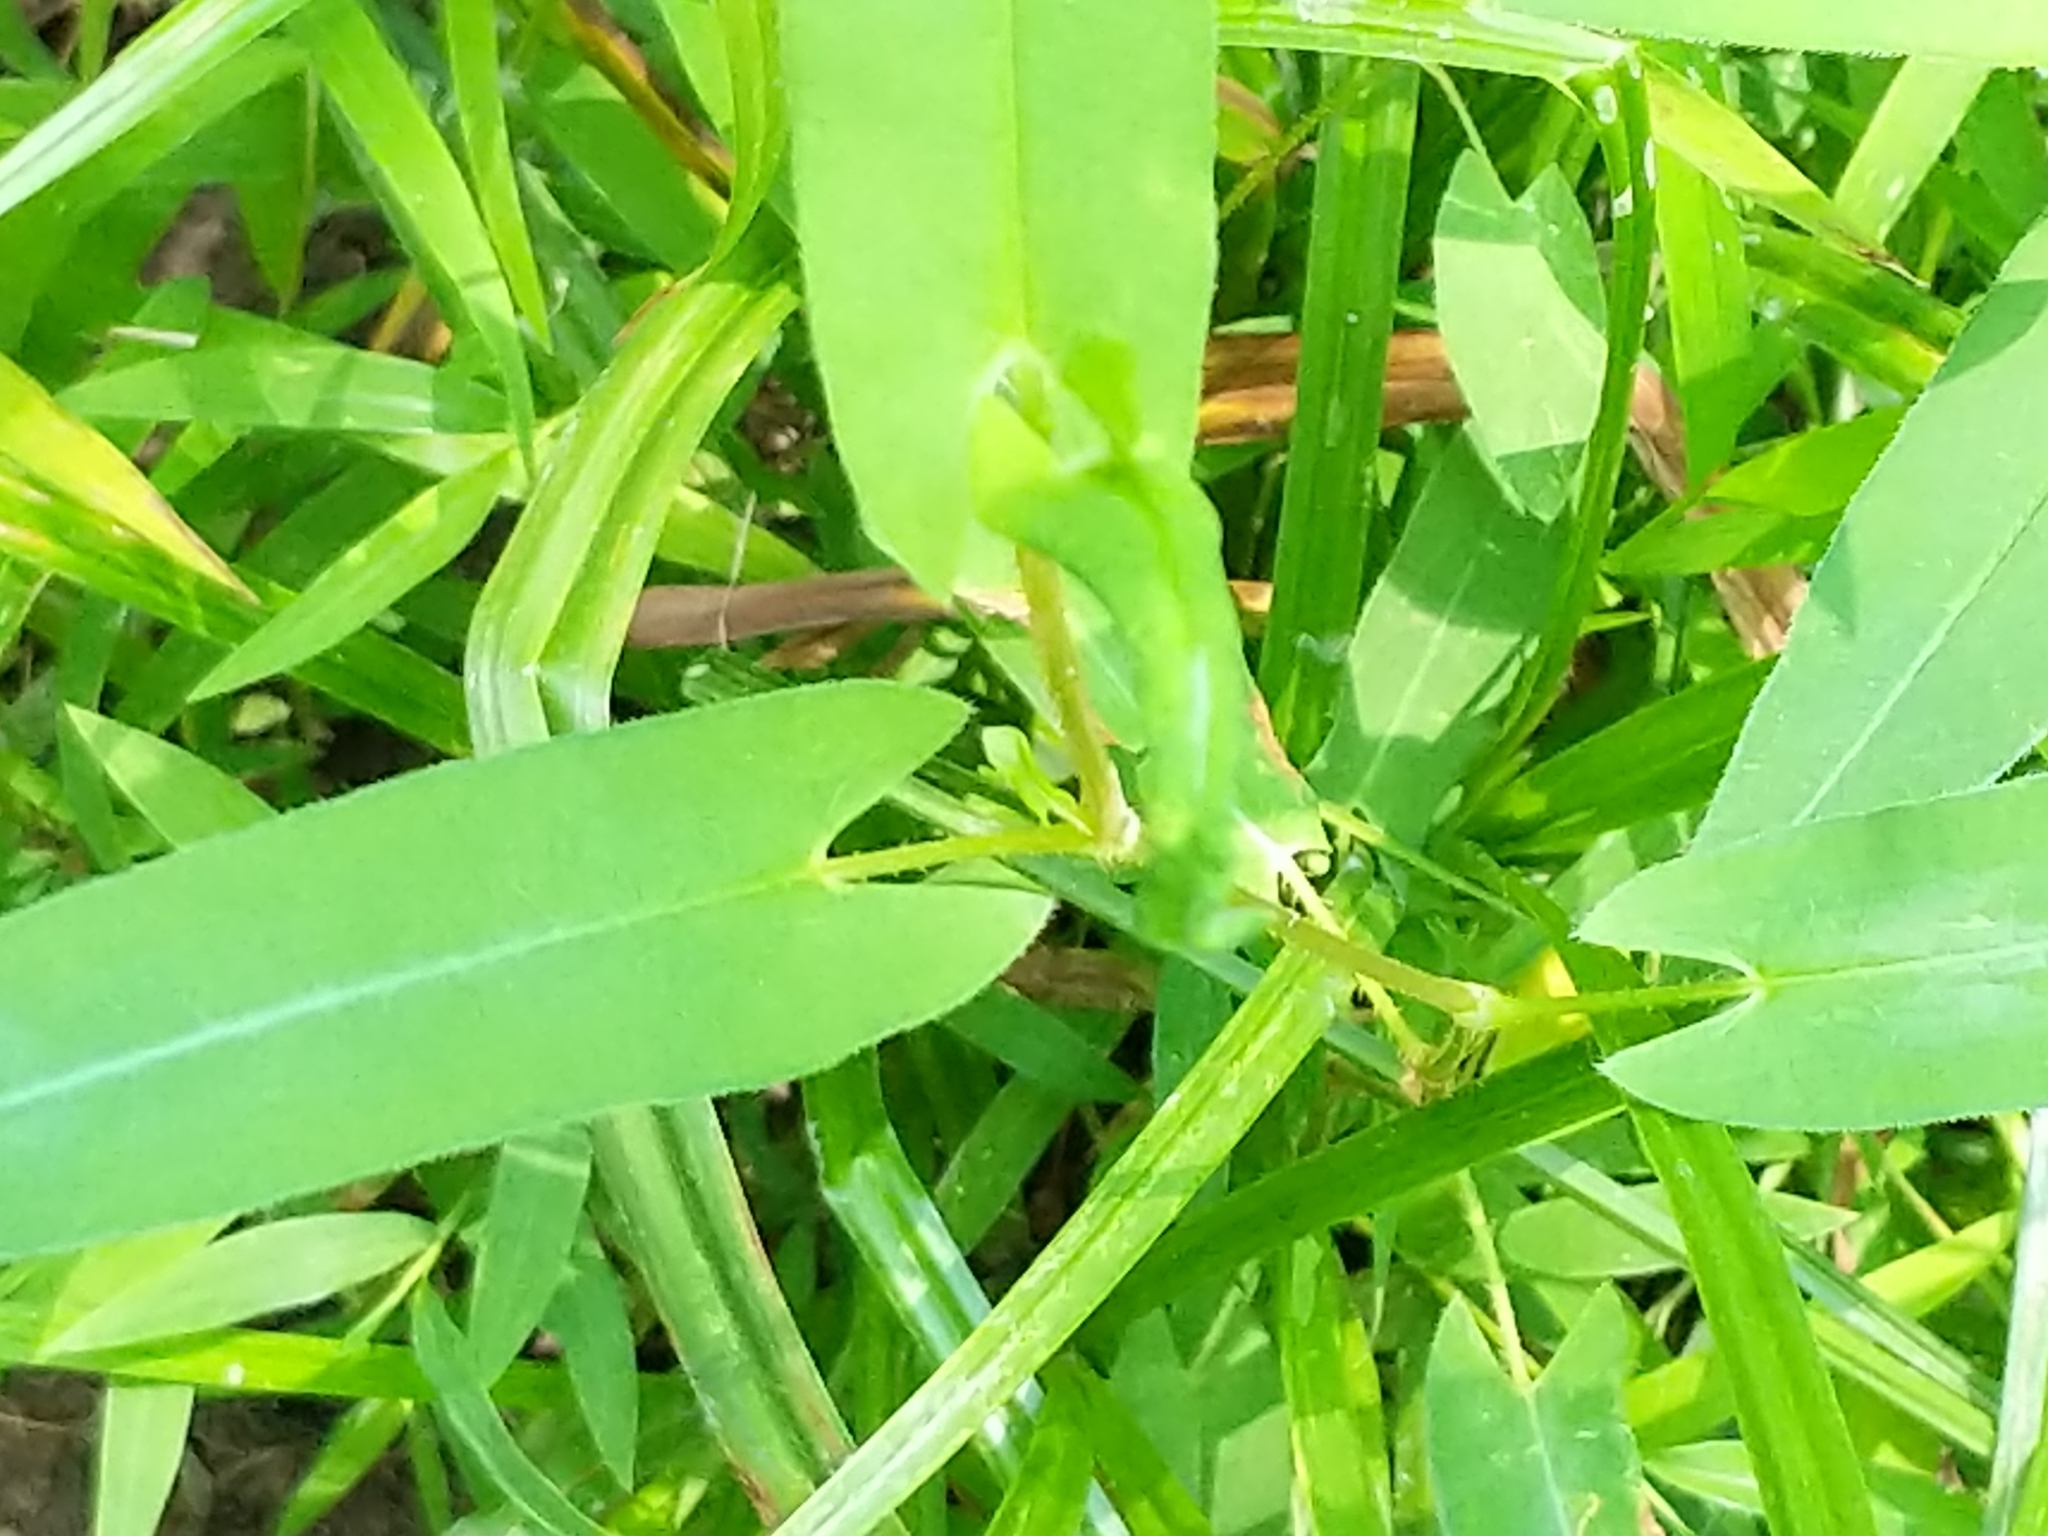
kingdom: Plantae
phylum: Tracheophyta
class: Magnoliopsida
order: Caryophyllales
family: Polygonaceae
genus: Persicaria
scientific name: Persicaria sagittata
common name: American tearthumb
